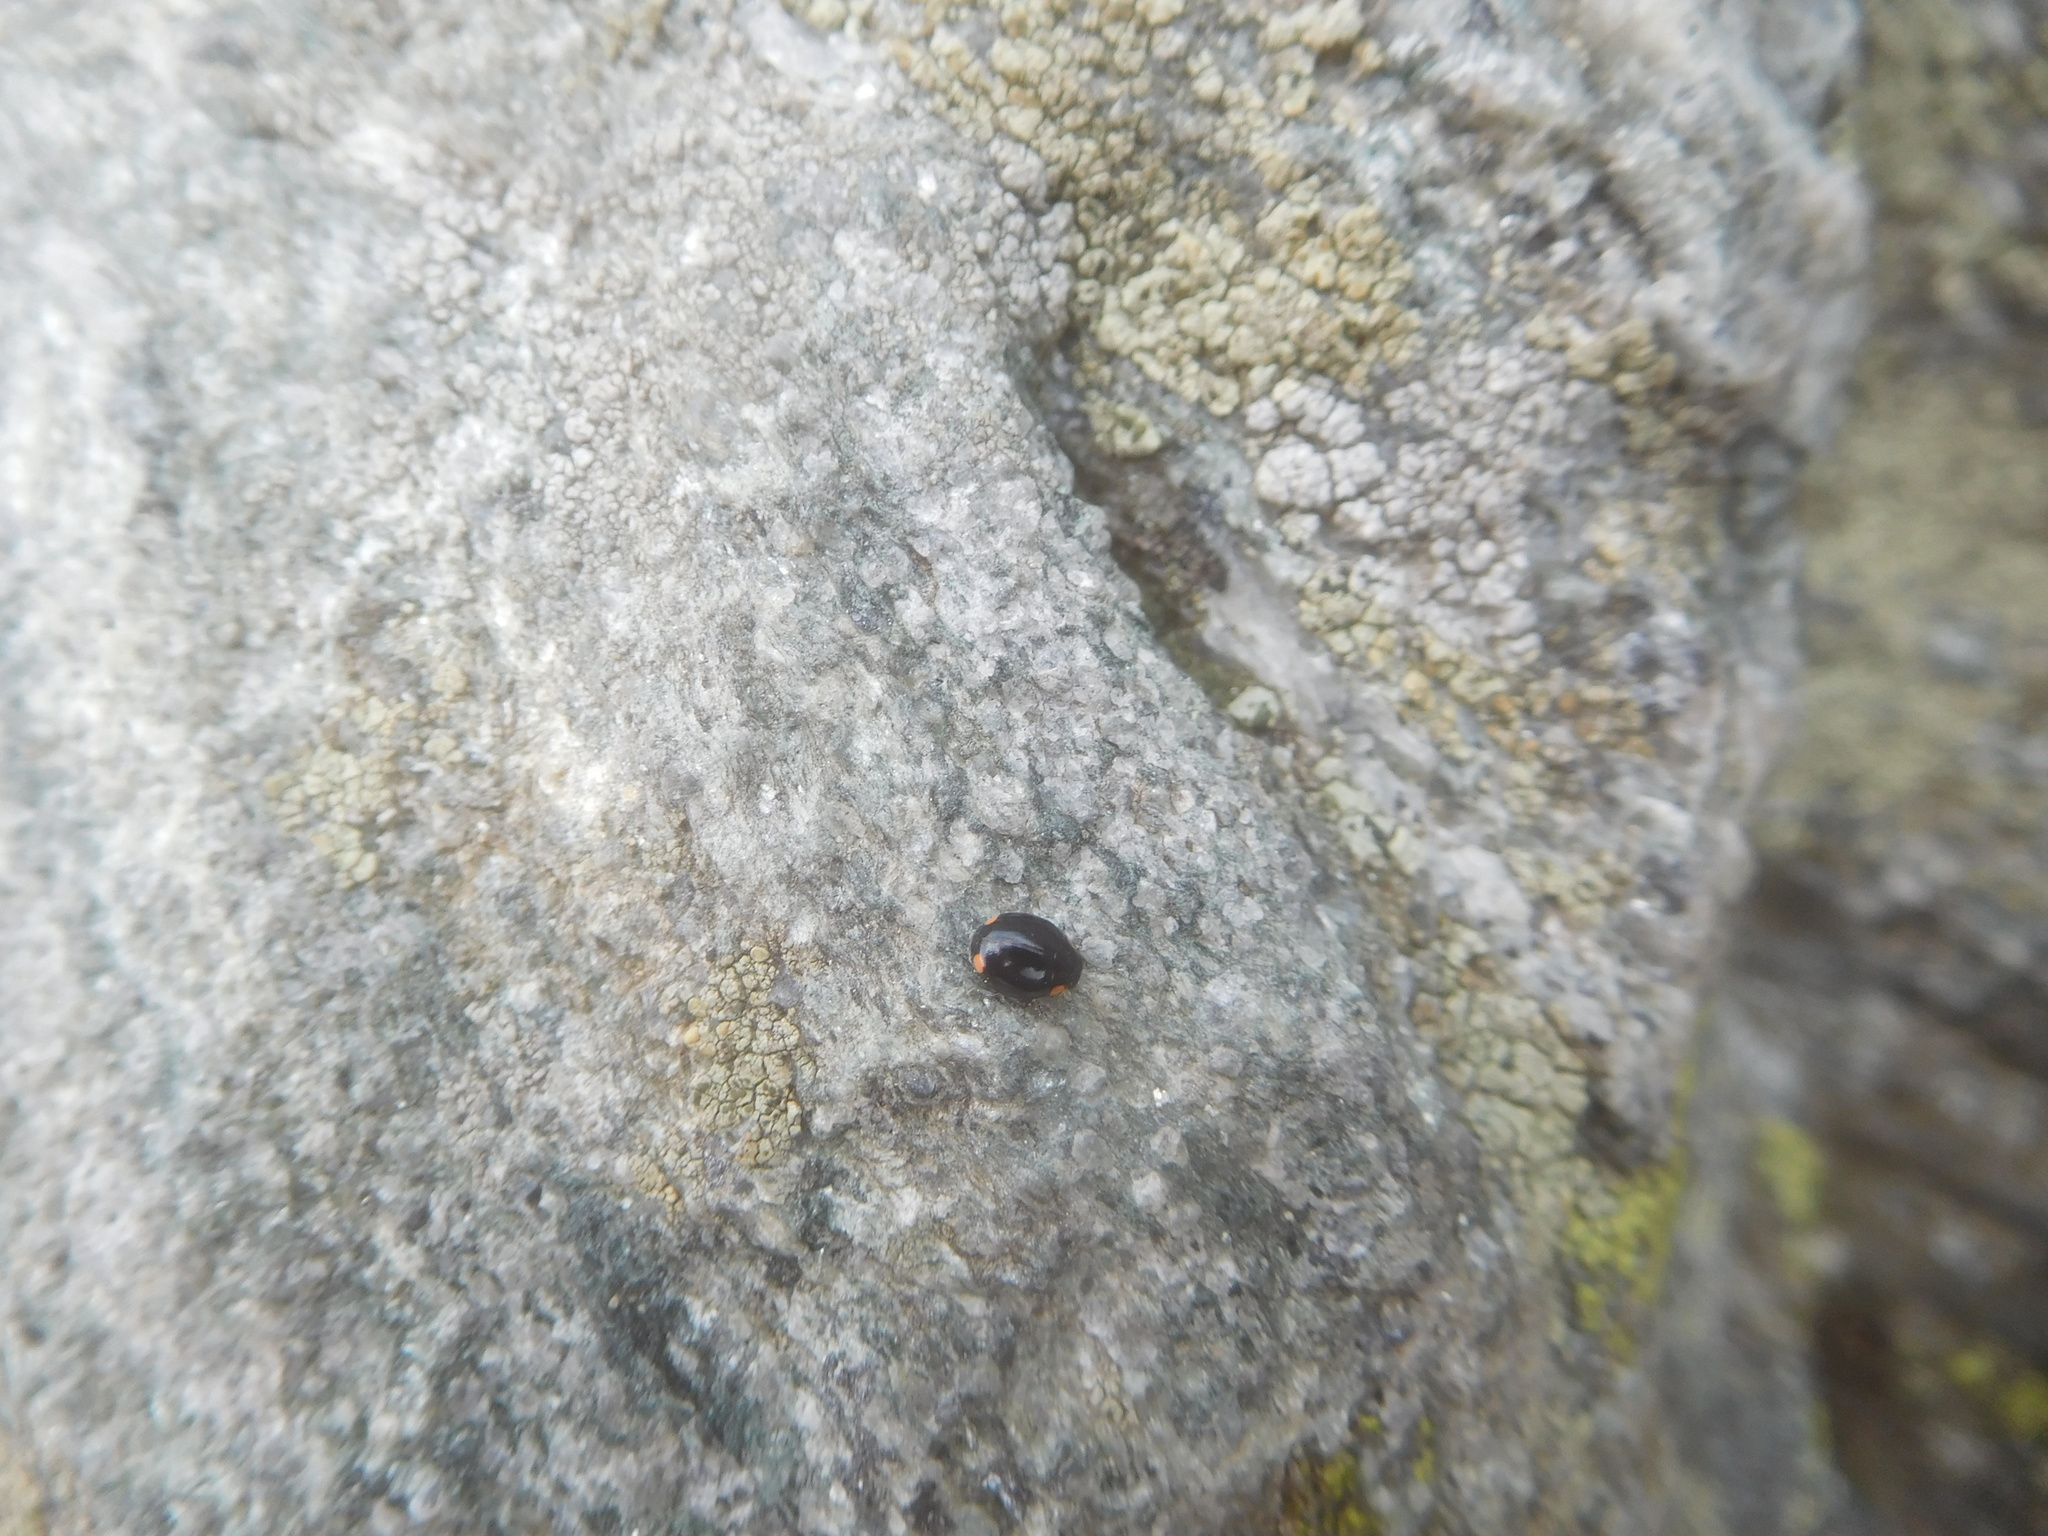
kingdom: Animalia
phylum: Arthropoda
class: Insecta
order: Coleoptera
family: Coccinellidae
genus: Hyperaspis
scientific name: Hyperaspis bigeminata
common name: Bigeminate sigil lady beetle
